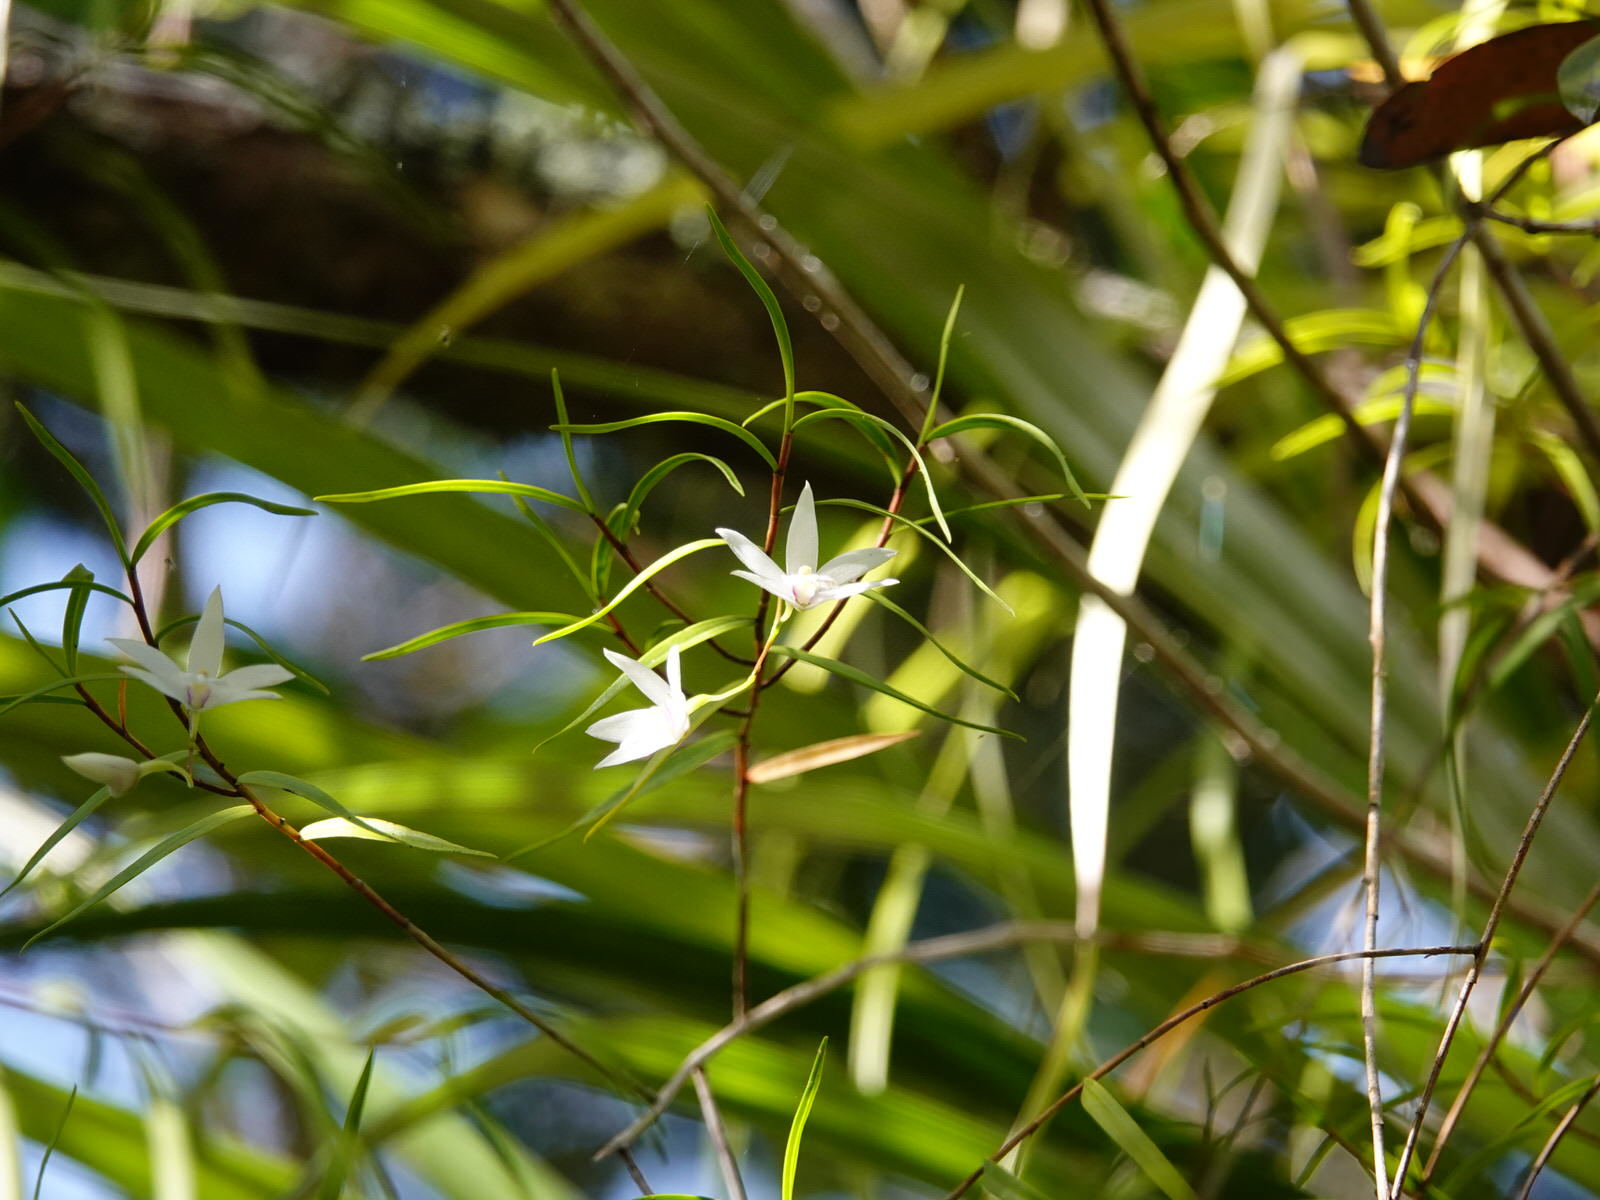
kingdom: Plantae
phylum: Tracheophyta
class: Liliopsida
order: Asparagales
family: Orchidaceae
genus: Dendrobium
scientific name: Dendrobium cunninghamii
